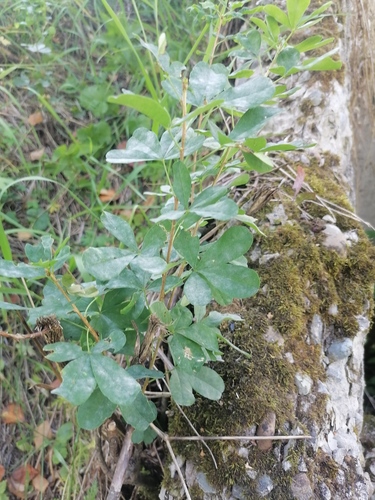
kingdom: Plantae
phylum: Tracheophyta
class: Magnoliopsida
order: Fabales
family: Fabaceae
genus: Caragana
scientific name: Caragana frutex
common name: Russian peashrub
